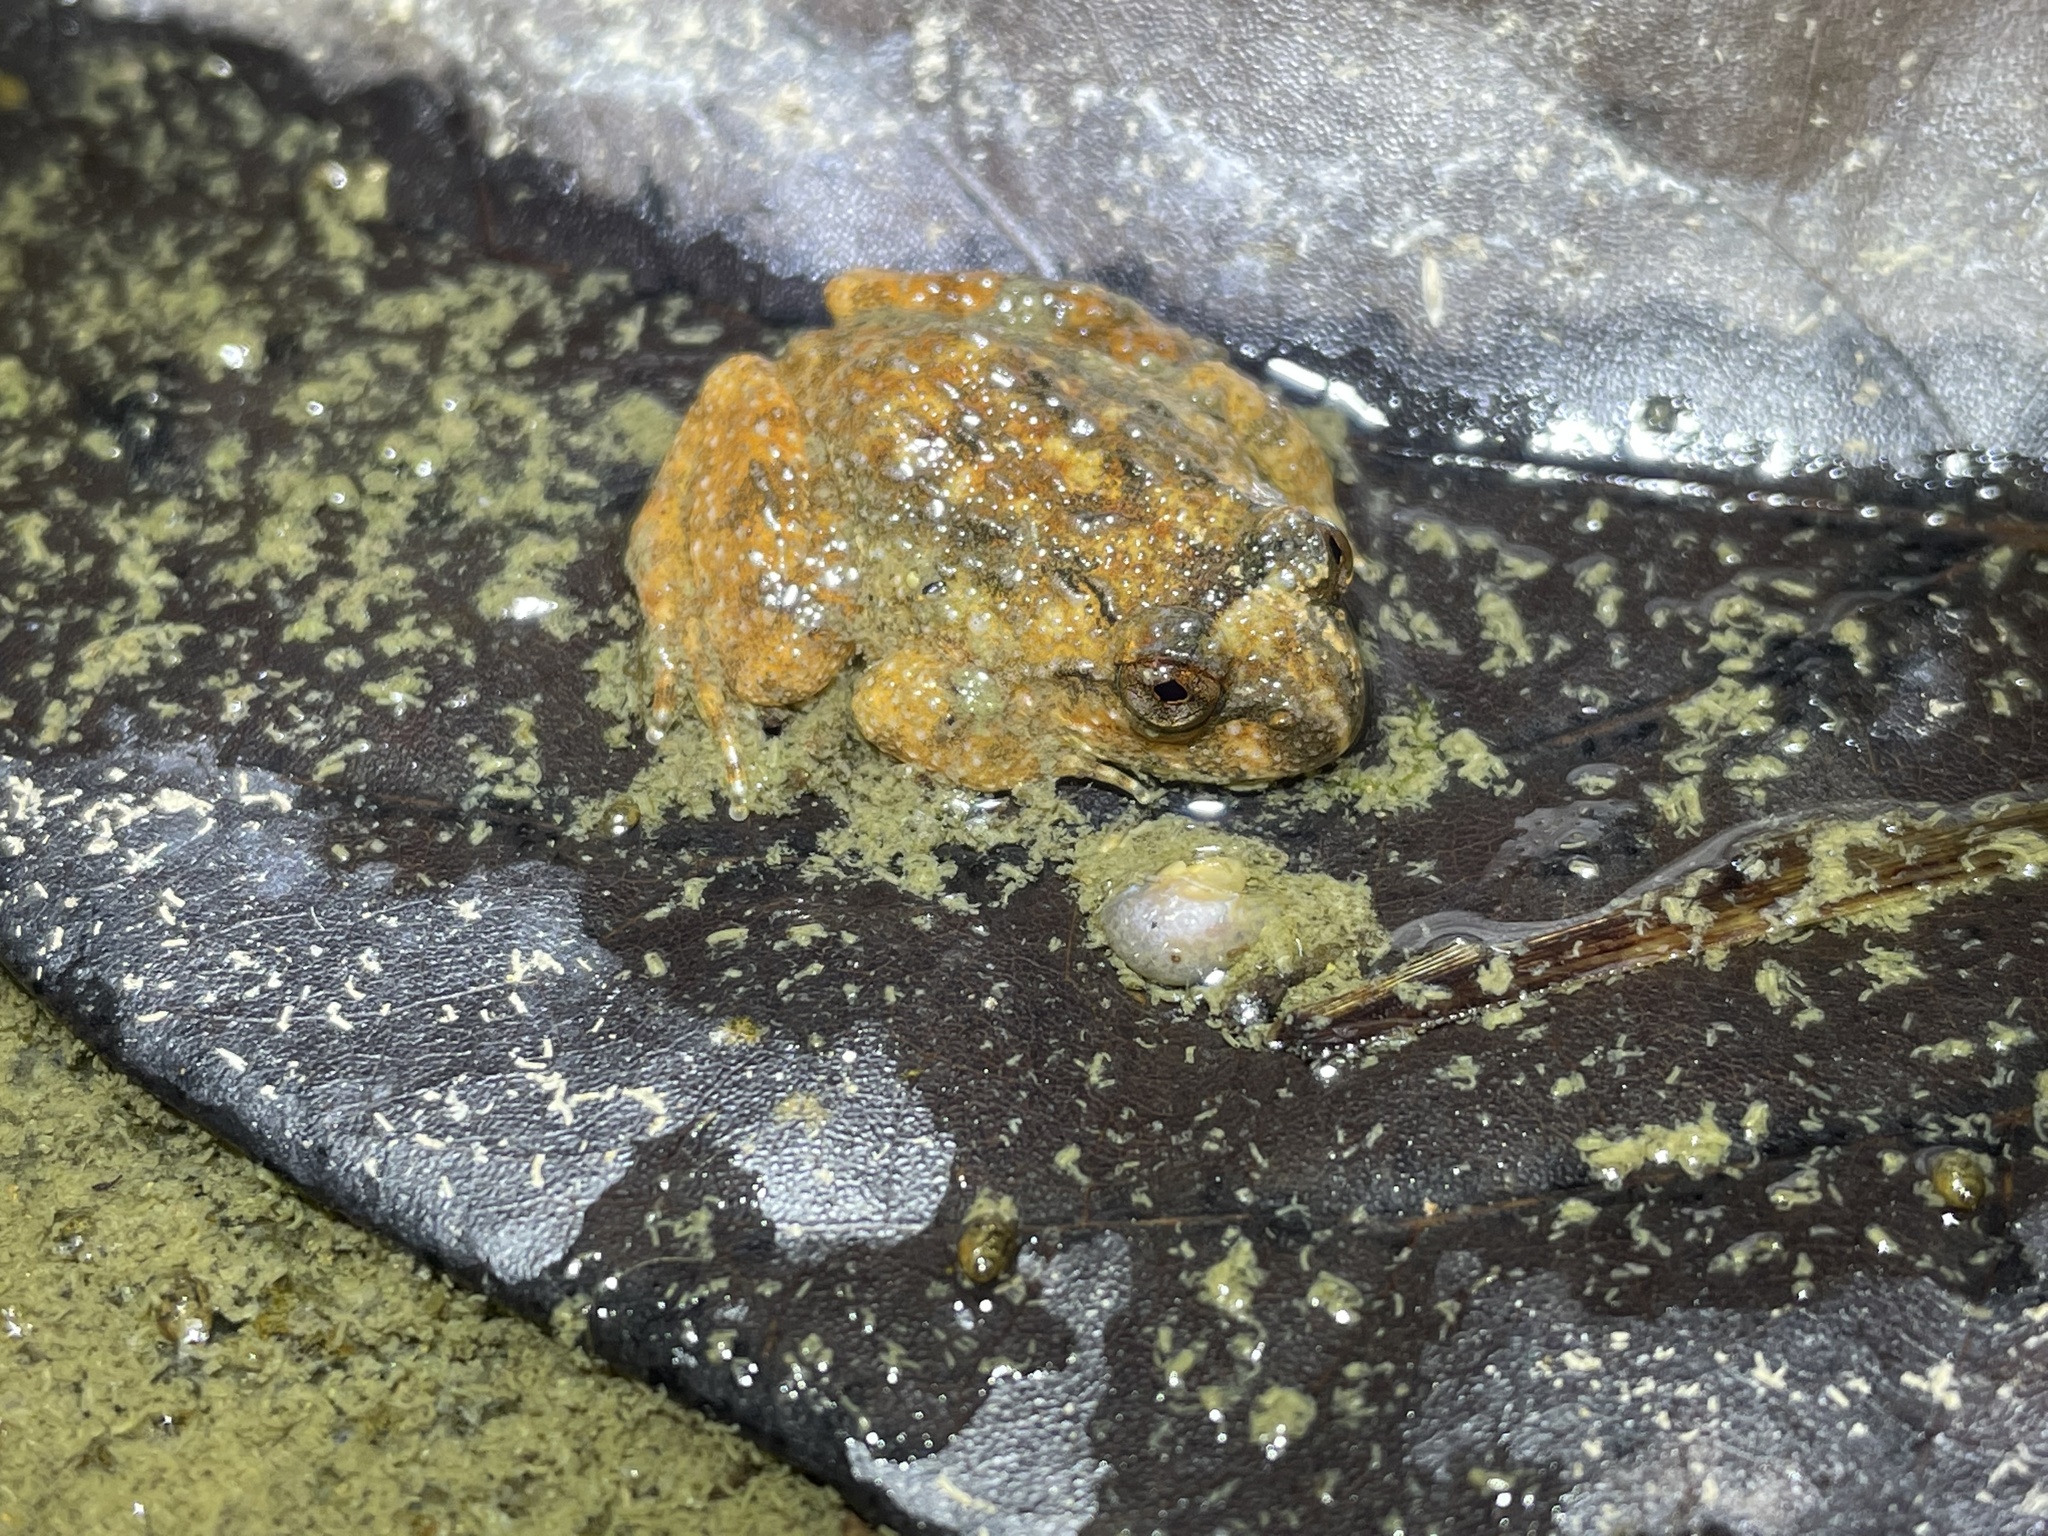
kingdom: Animalia
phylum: Chordata
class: Amphibia
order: Anura
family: Dicroglossidae
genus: Quasipaa
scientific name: Quasipaa exilispinosa
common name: Hong kong paa frog
